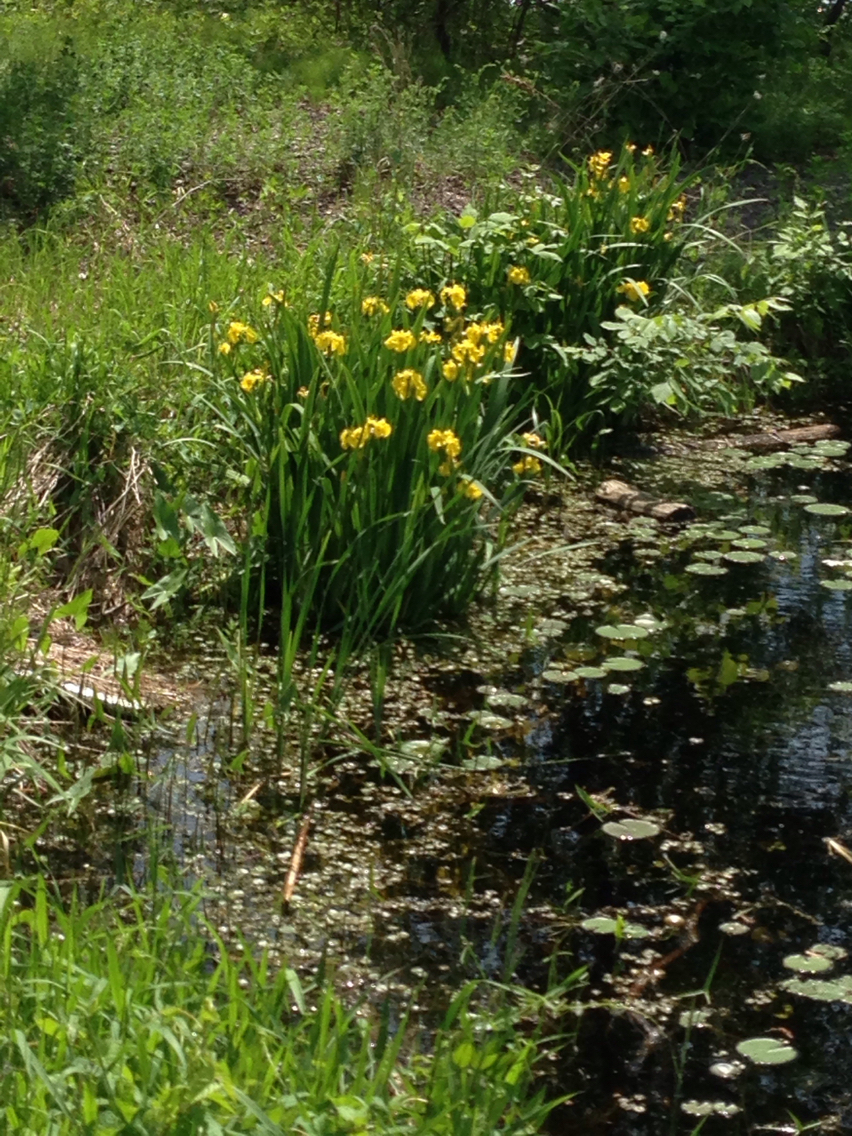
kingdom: Plantae
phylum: Tracheophyta
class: Liliopsida
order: Alismatales
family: Hydrocharitaceae
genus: Hydrocharis
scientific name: Hydrocharis morsus-ranae
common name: Frogbit
